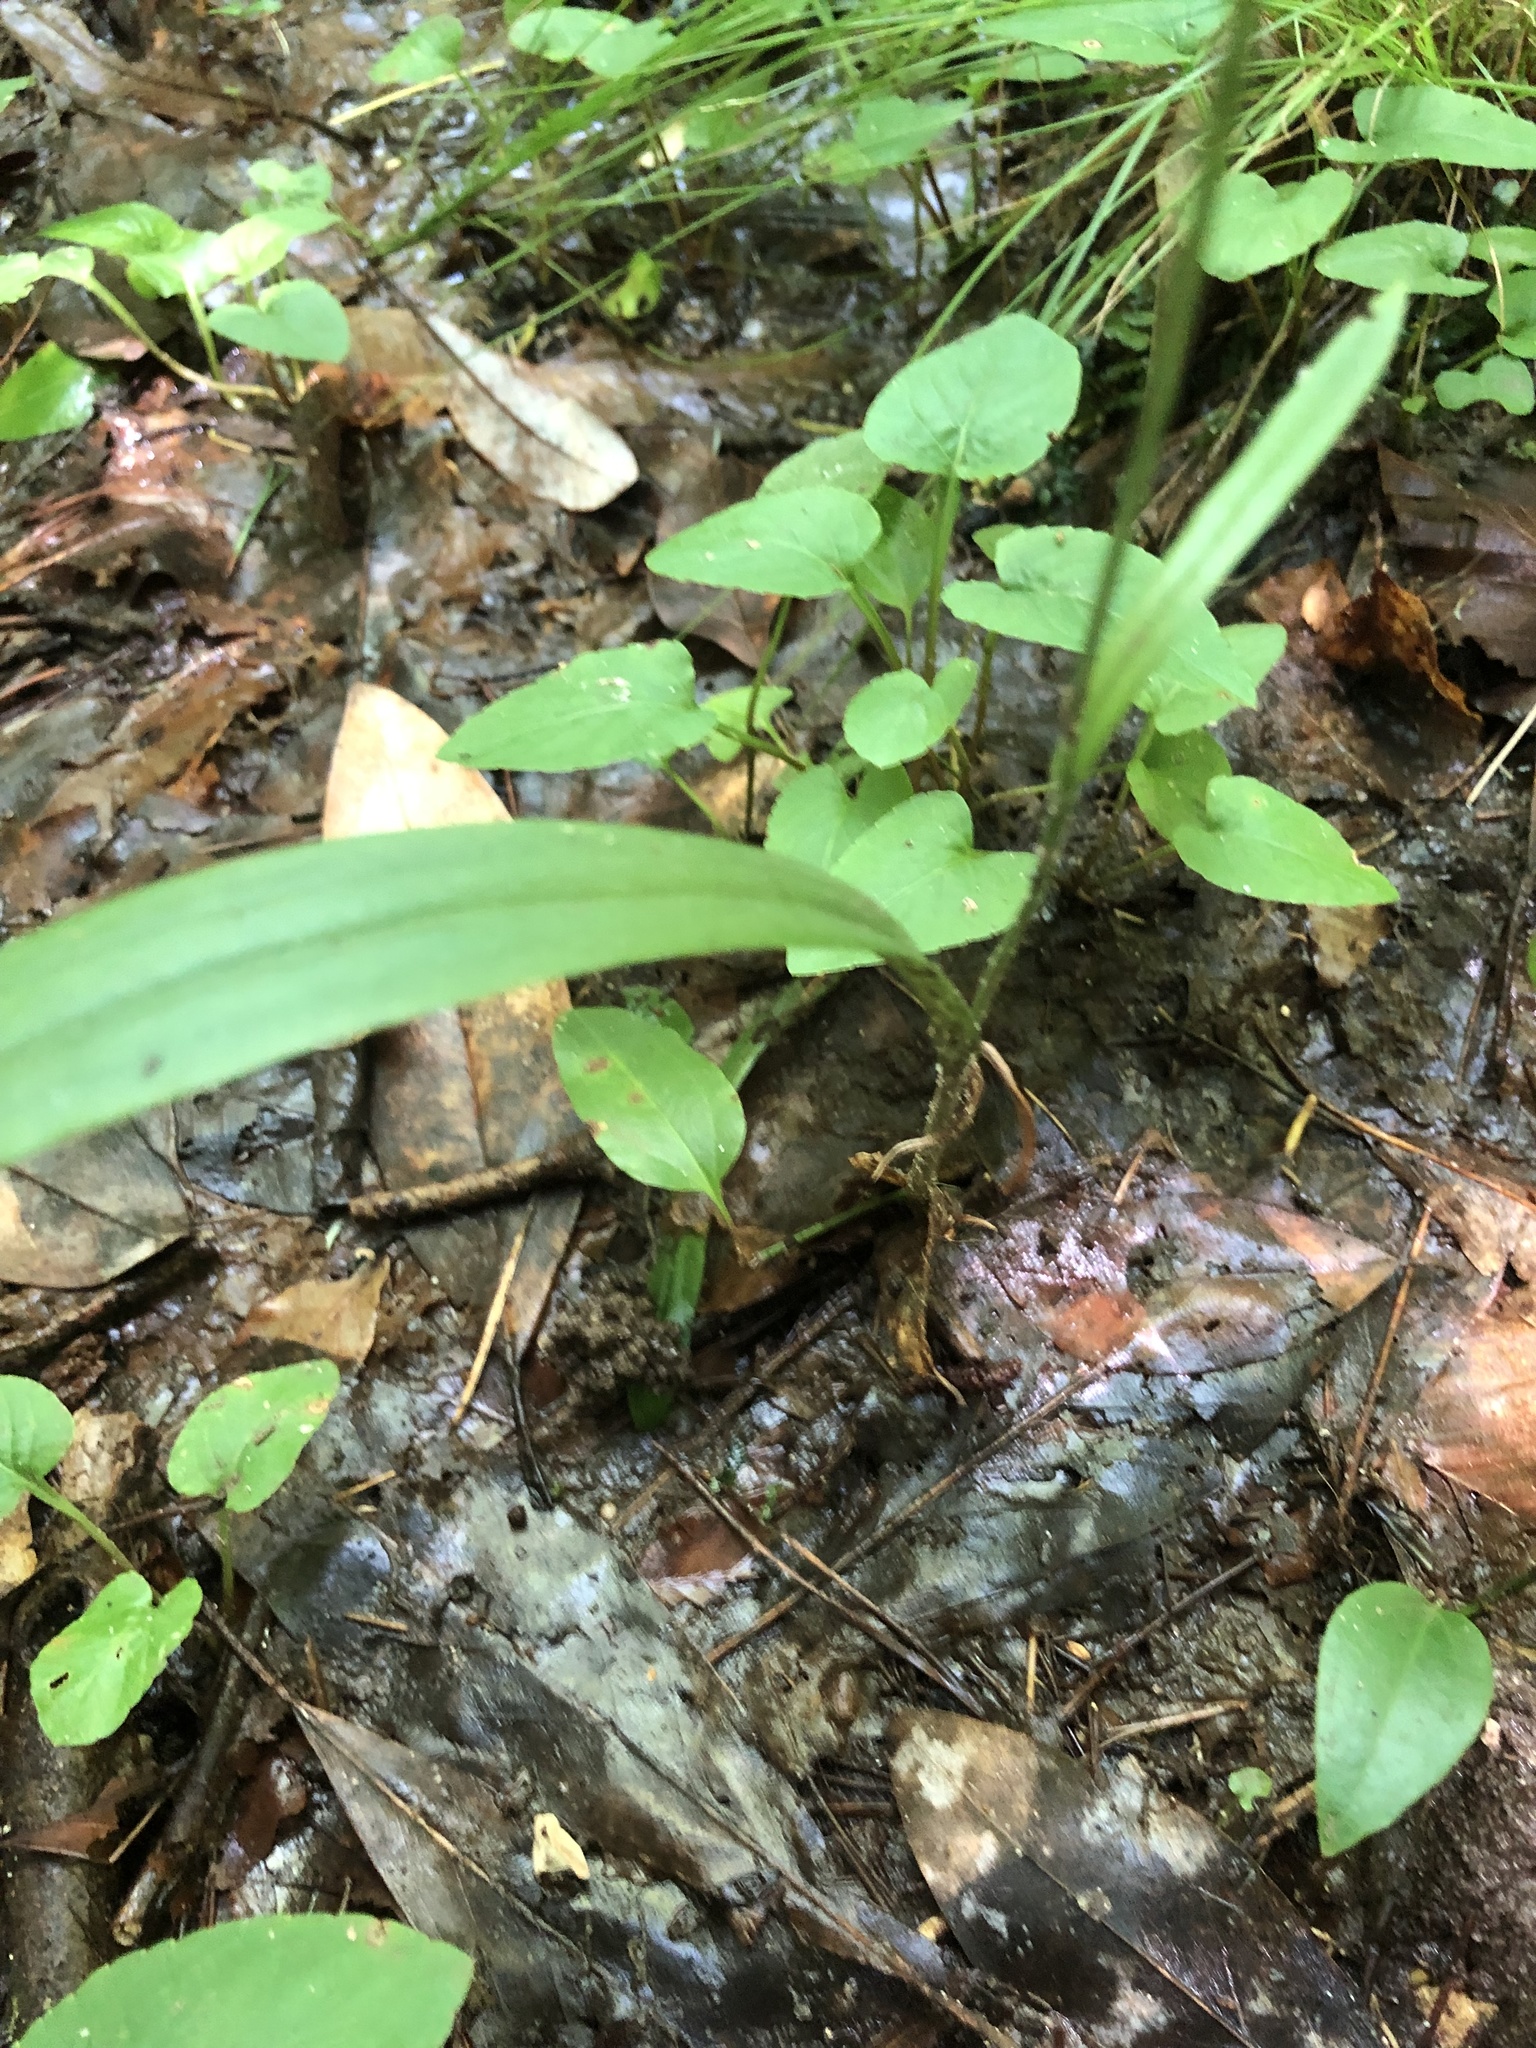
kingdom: Plantae
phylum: Tracheophyta
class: Liliopsida
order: Asparagales
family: Orchidaceae
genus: Platanthera
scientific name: Platanthera clavellata
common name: Club-spur orchid
